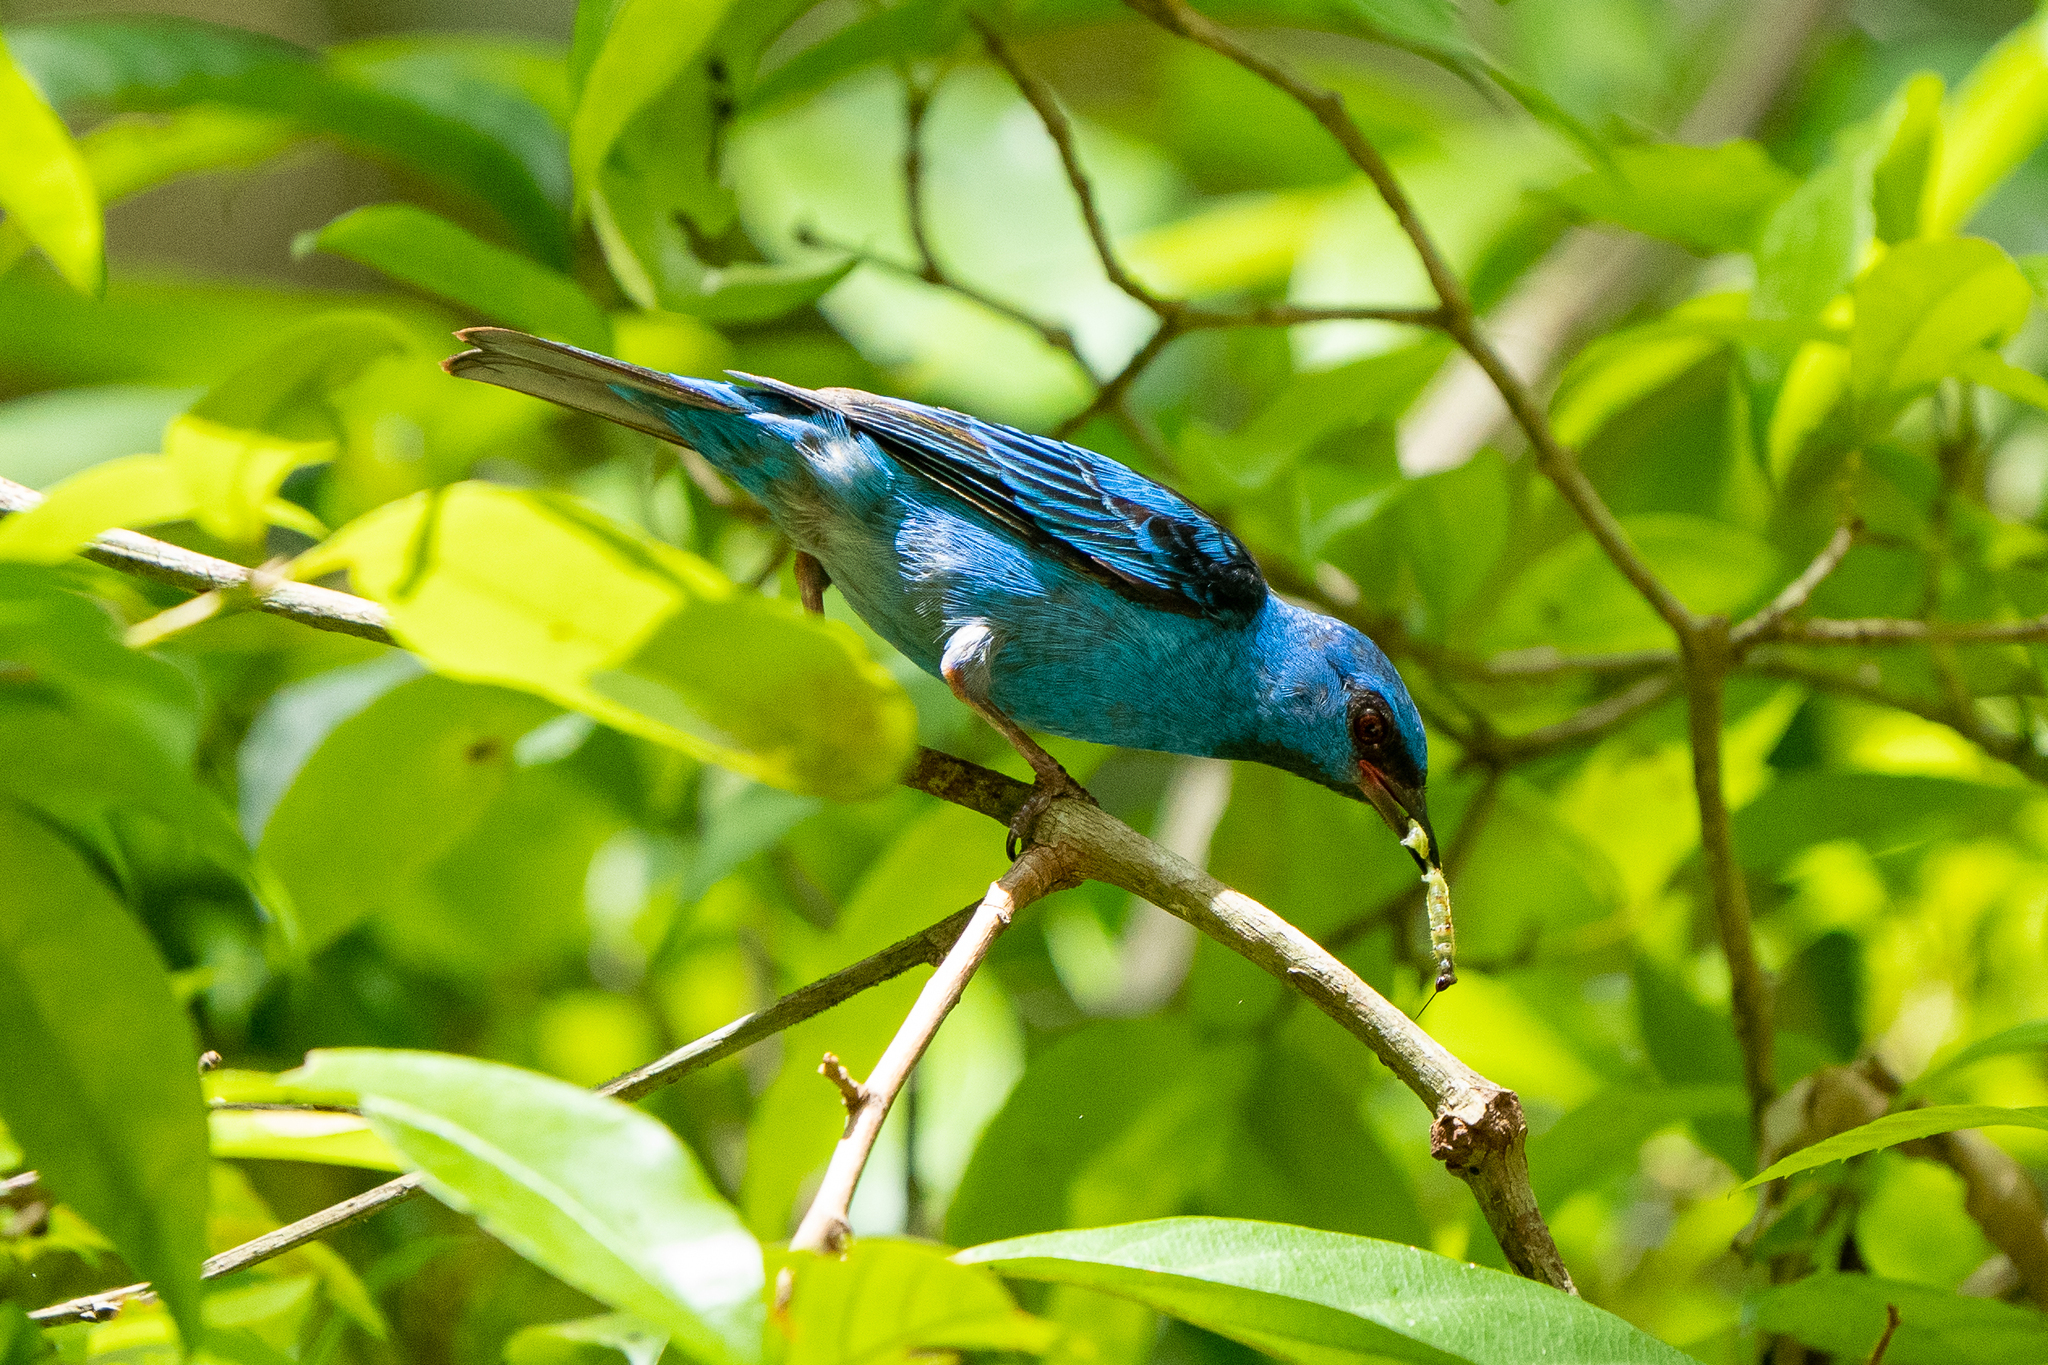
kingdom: Animalia
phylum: Chordata
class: Aves
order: Passeriformes
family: Thraupidae
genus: Dacnis
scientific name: Dacnis cayana
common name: Blue dacnis
